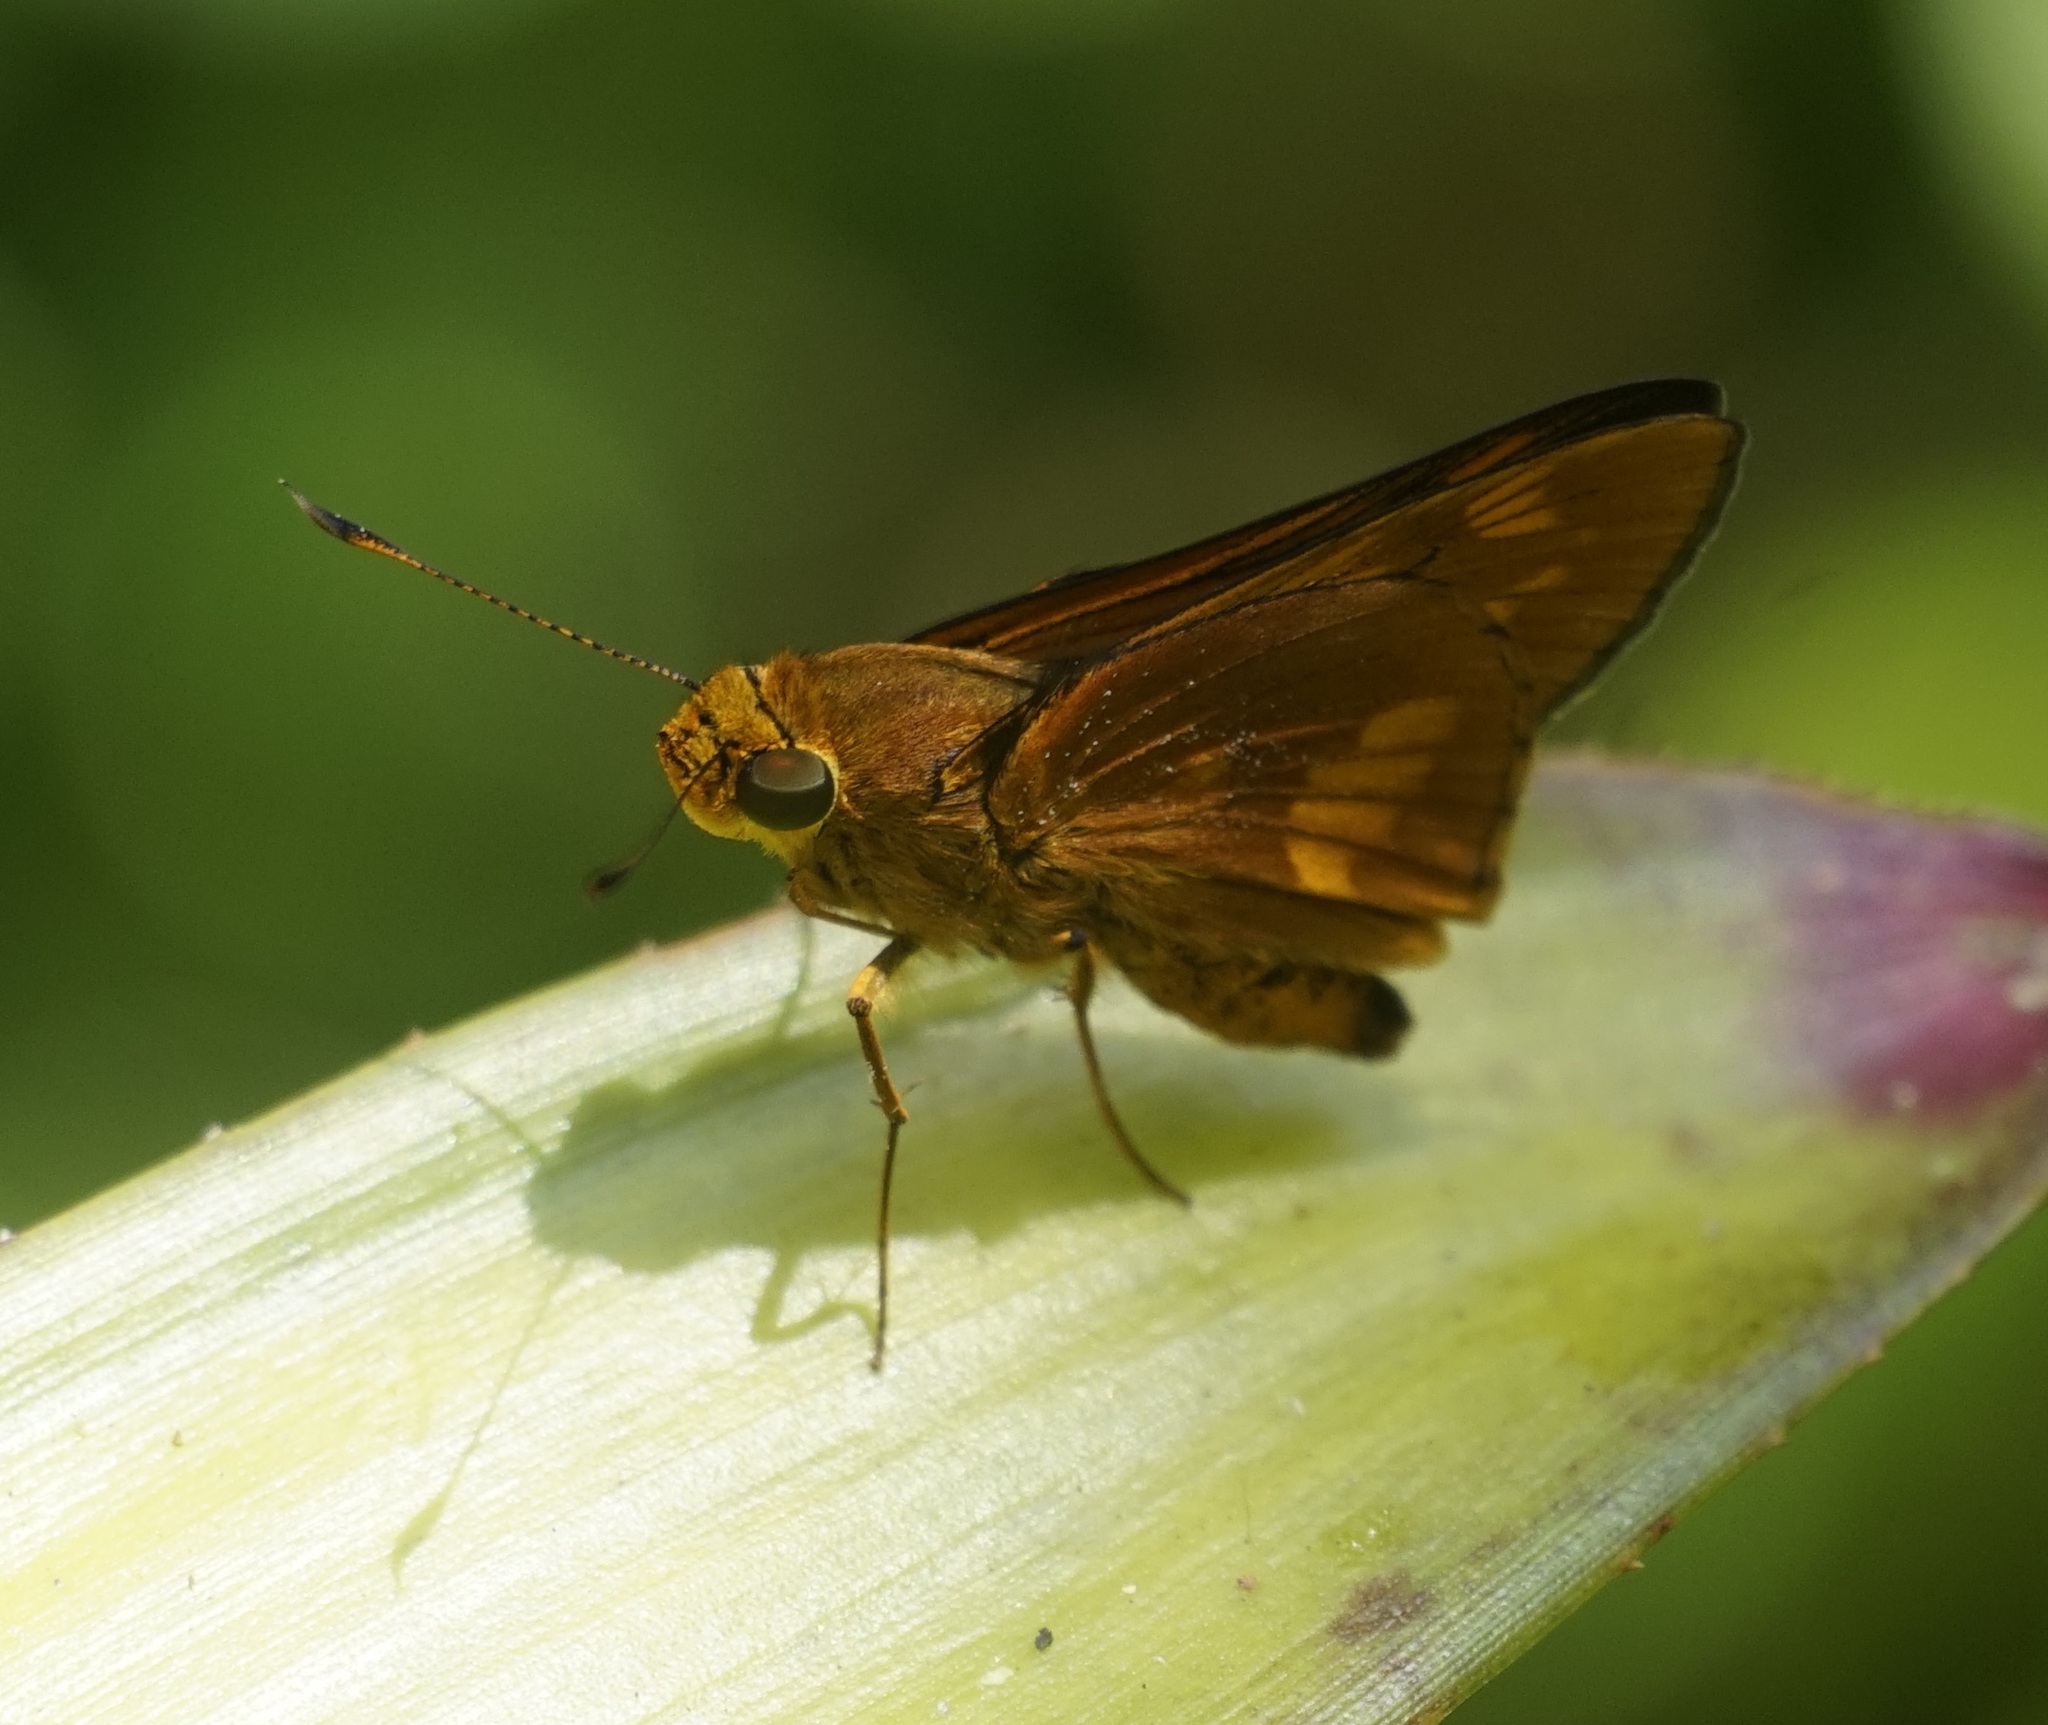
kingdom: Animalia
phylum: Arthropoda
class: Insecta
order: Lepidoptera
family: Hesperiidae
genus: Cephrenes
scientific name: Cephrenes augiades
